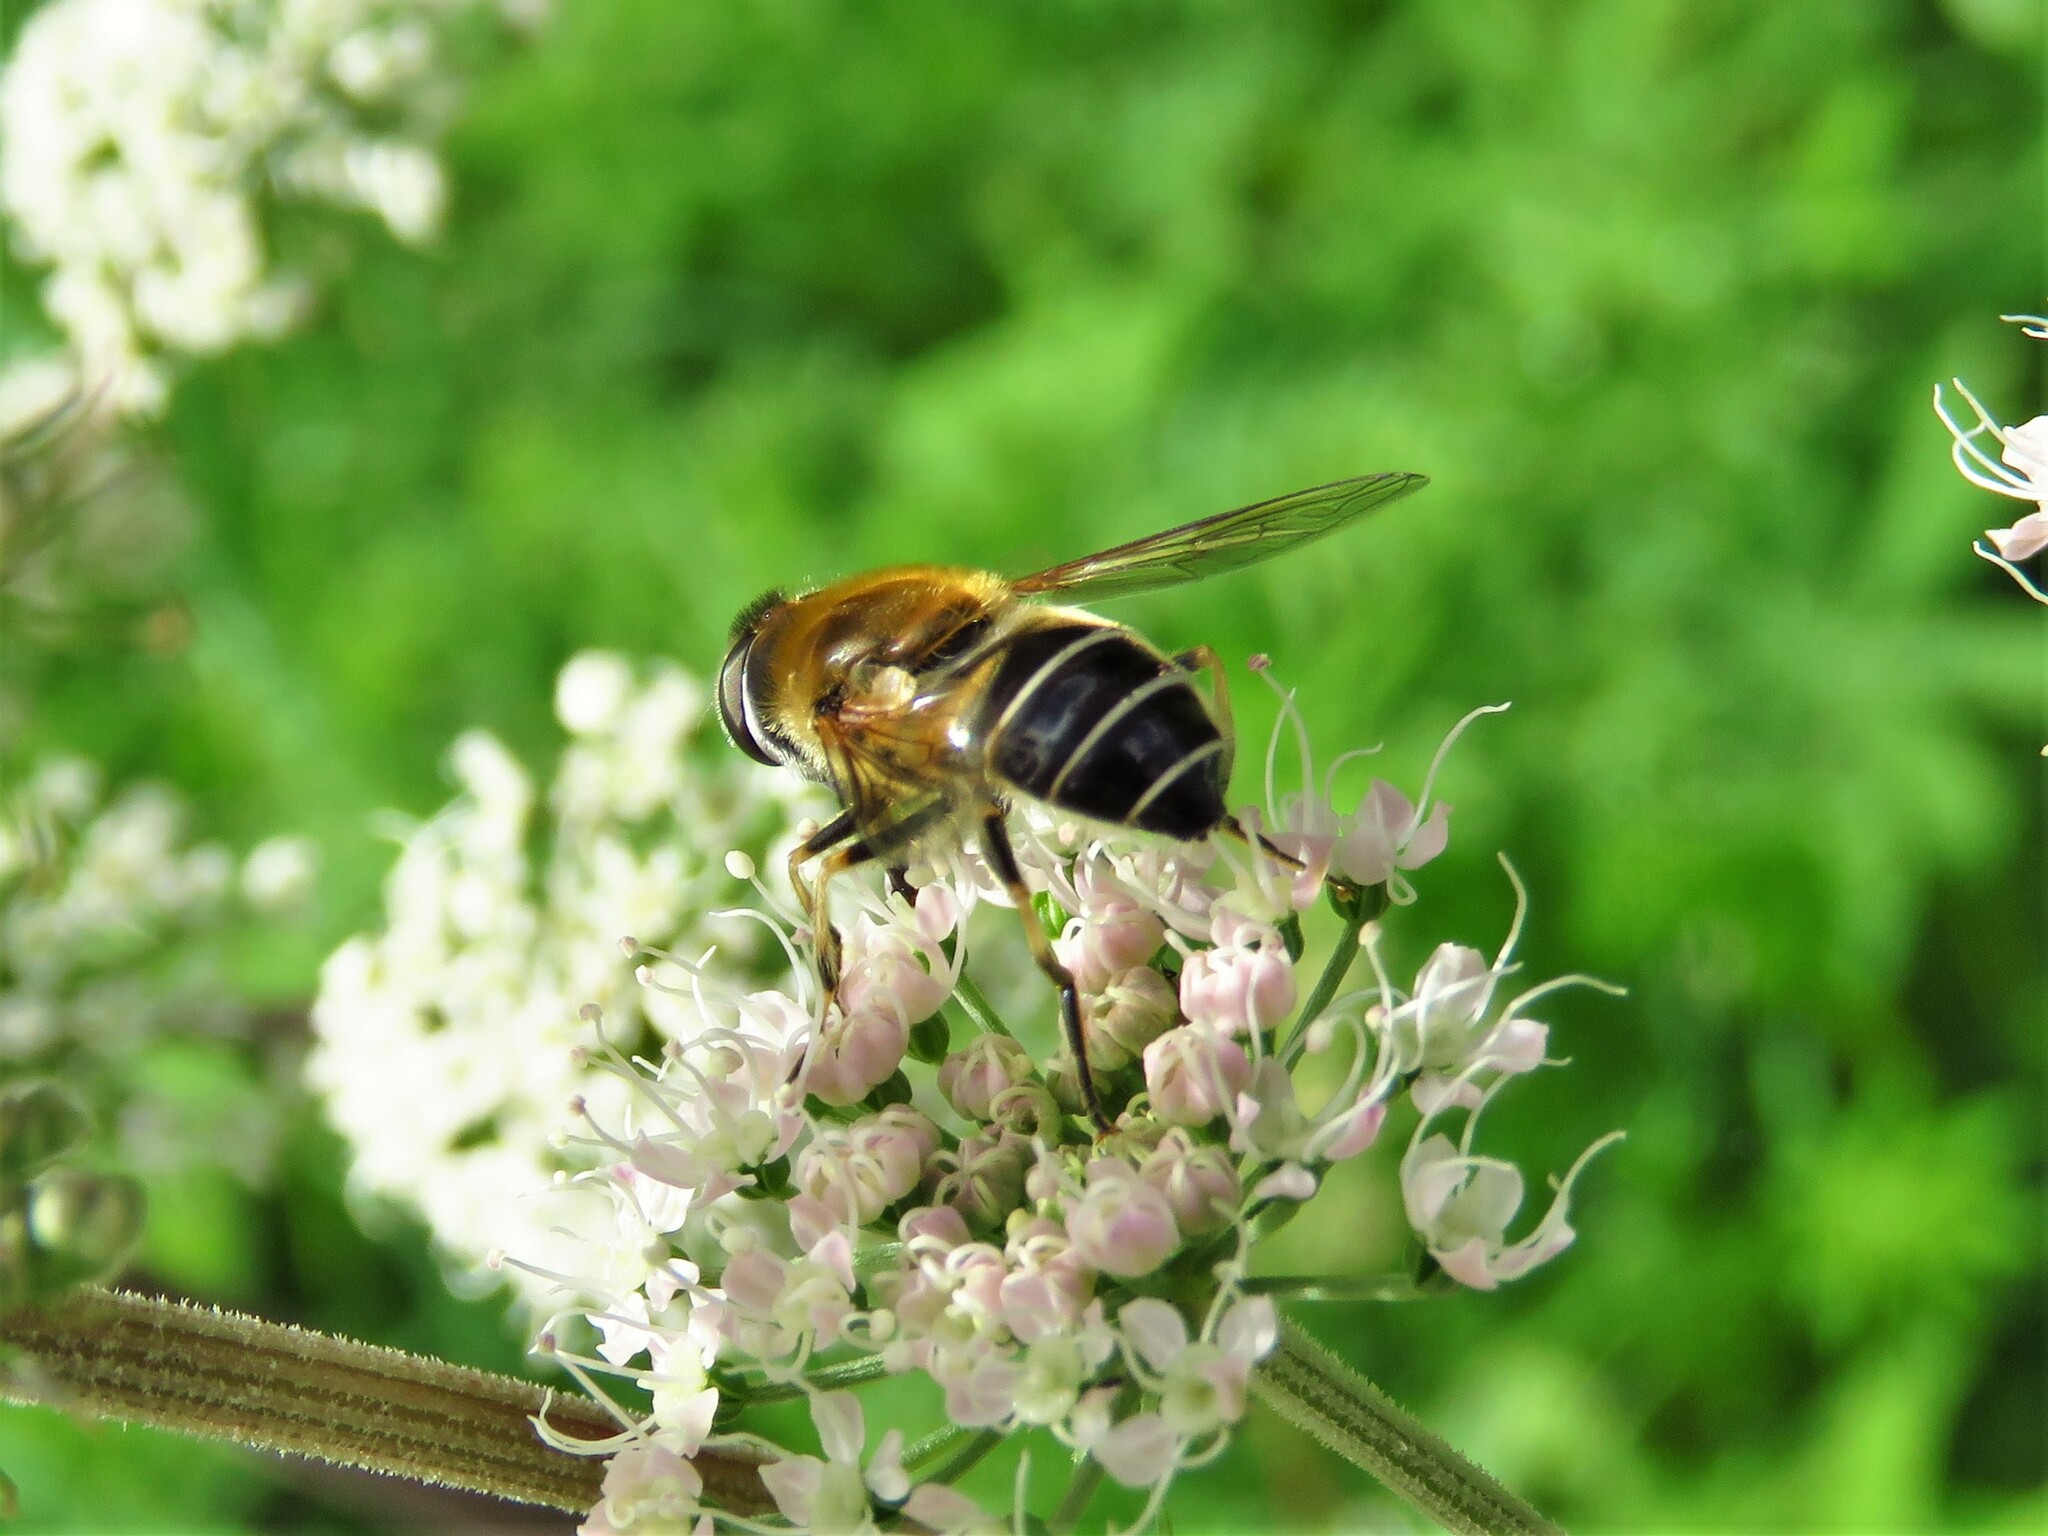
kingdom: Animalia
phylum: Arthropoda
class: Insecta
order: Diptera
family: Syrphidae
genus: Eristalis
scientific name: Eristalis nemorum
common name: Orange-spined drone fly
